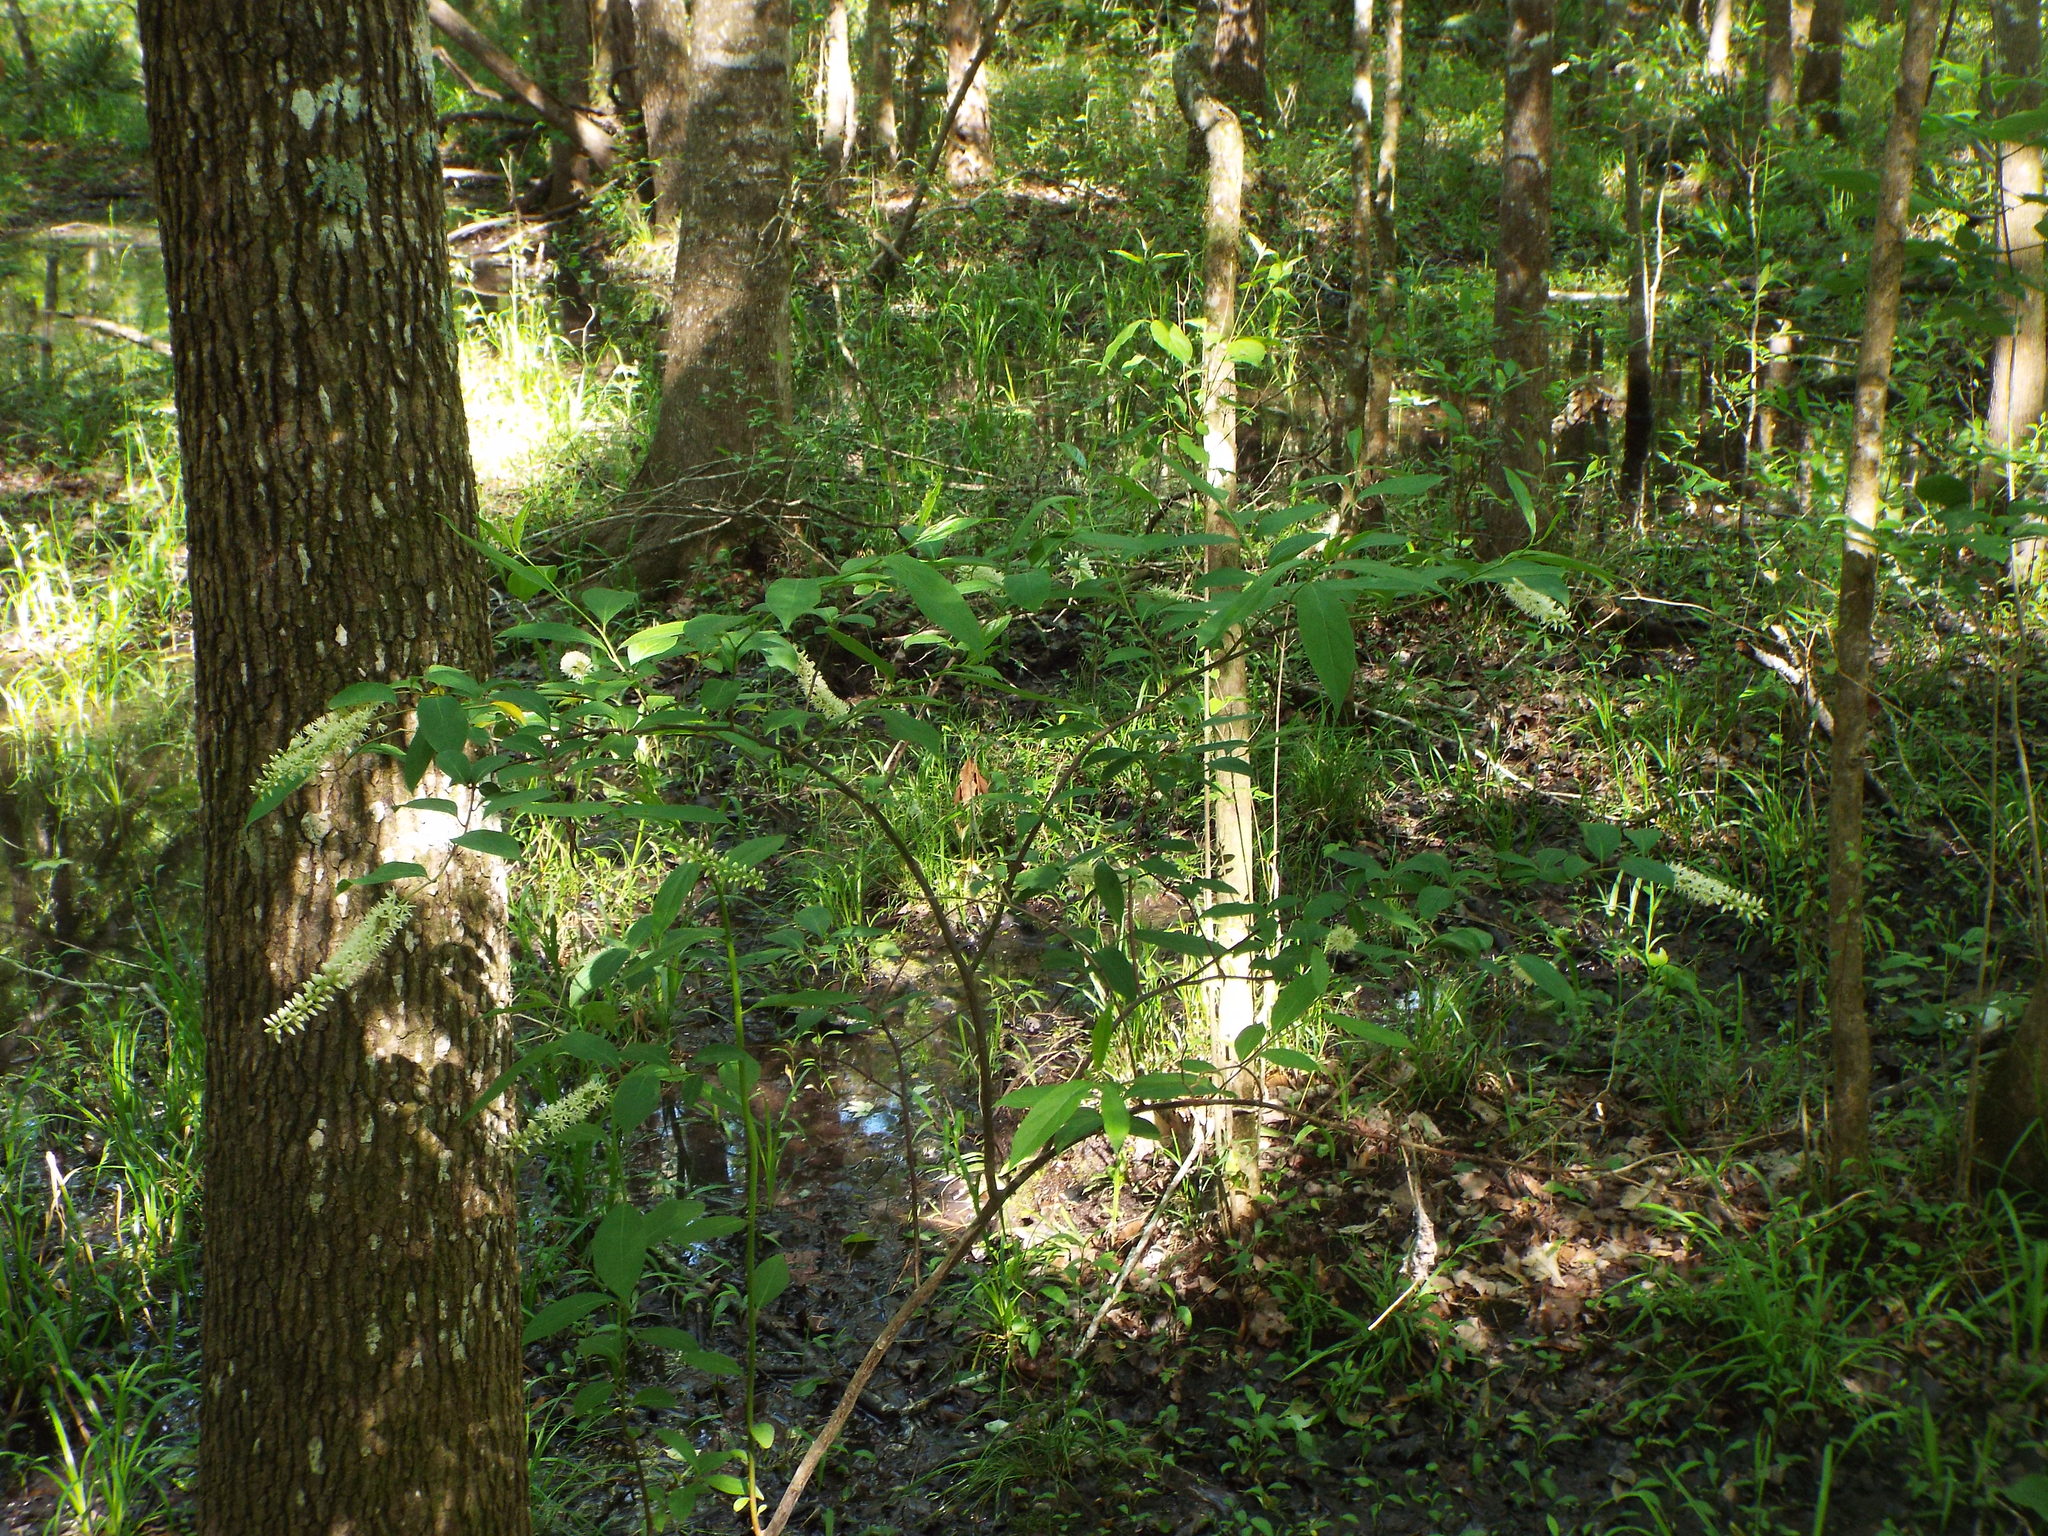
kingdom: Plantae
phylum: Tracheophyta
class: Magnoliopsida
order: Saxifragales
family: Iteaceae
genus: Itea
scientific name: Itea virginica
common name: Sweetspire
